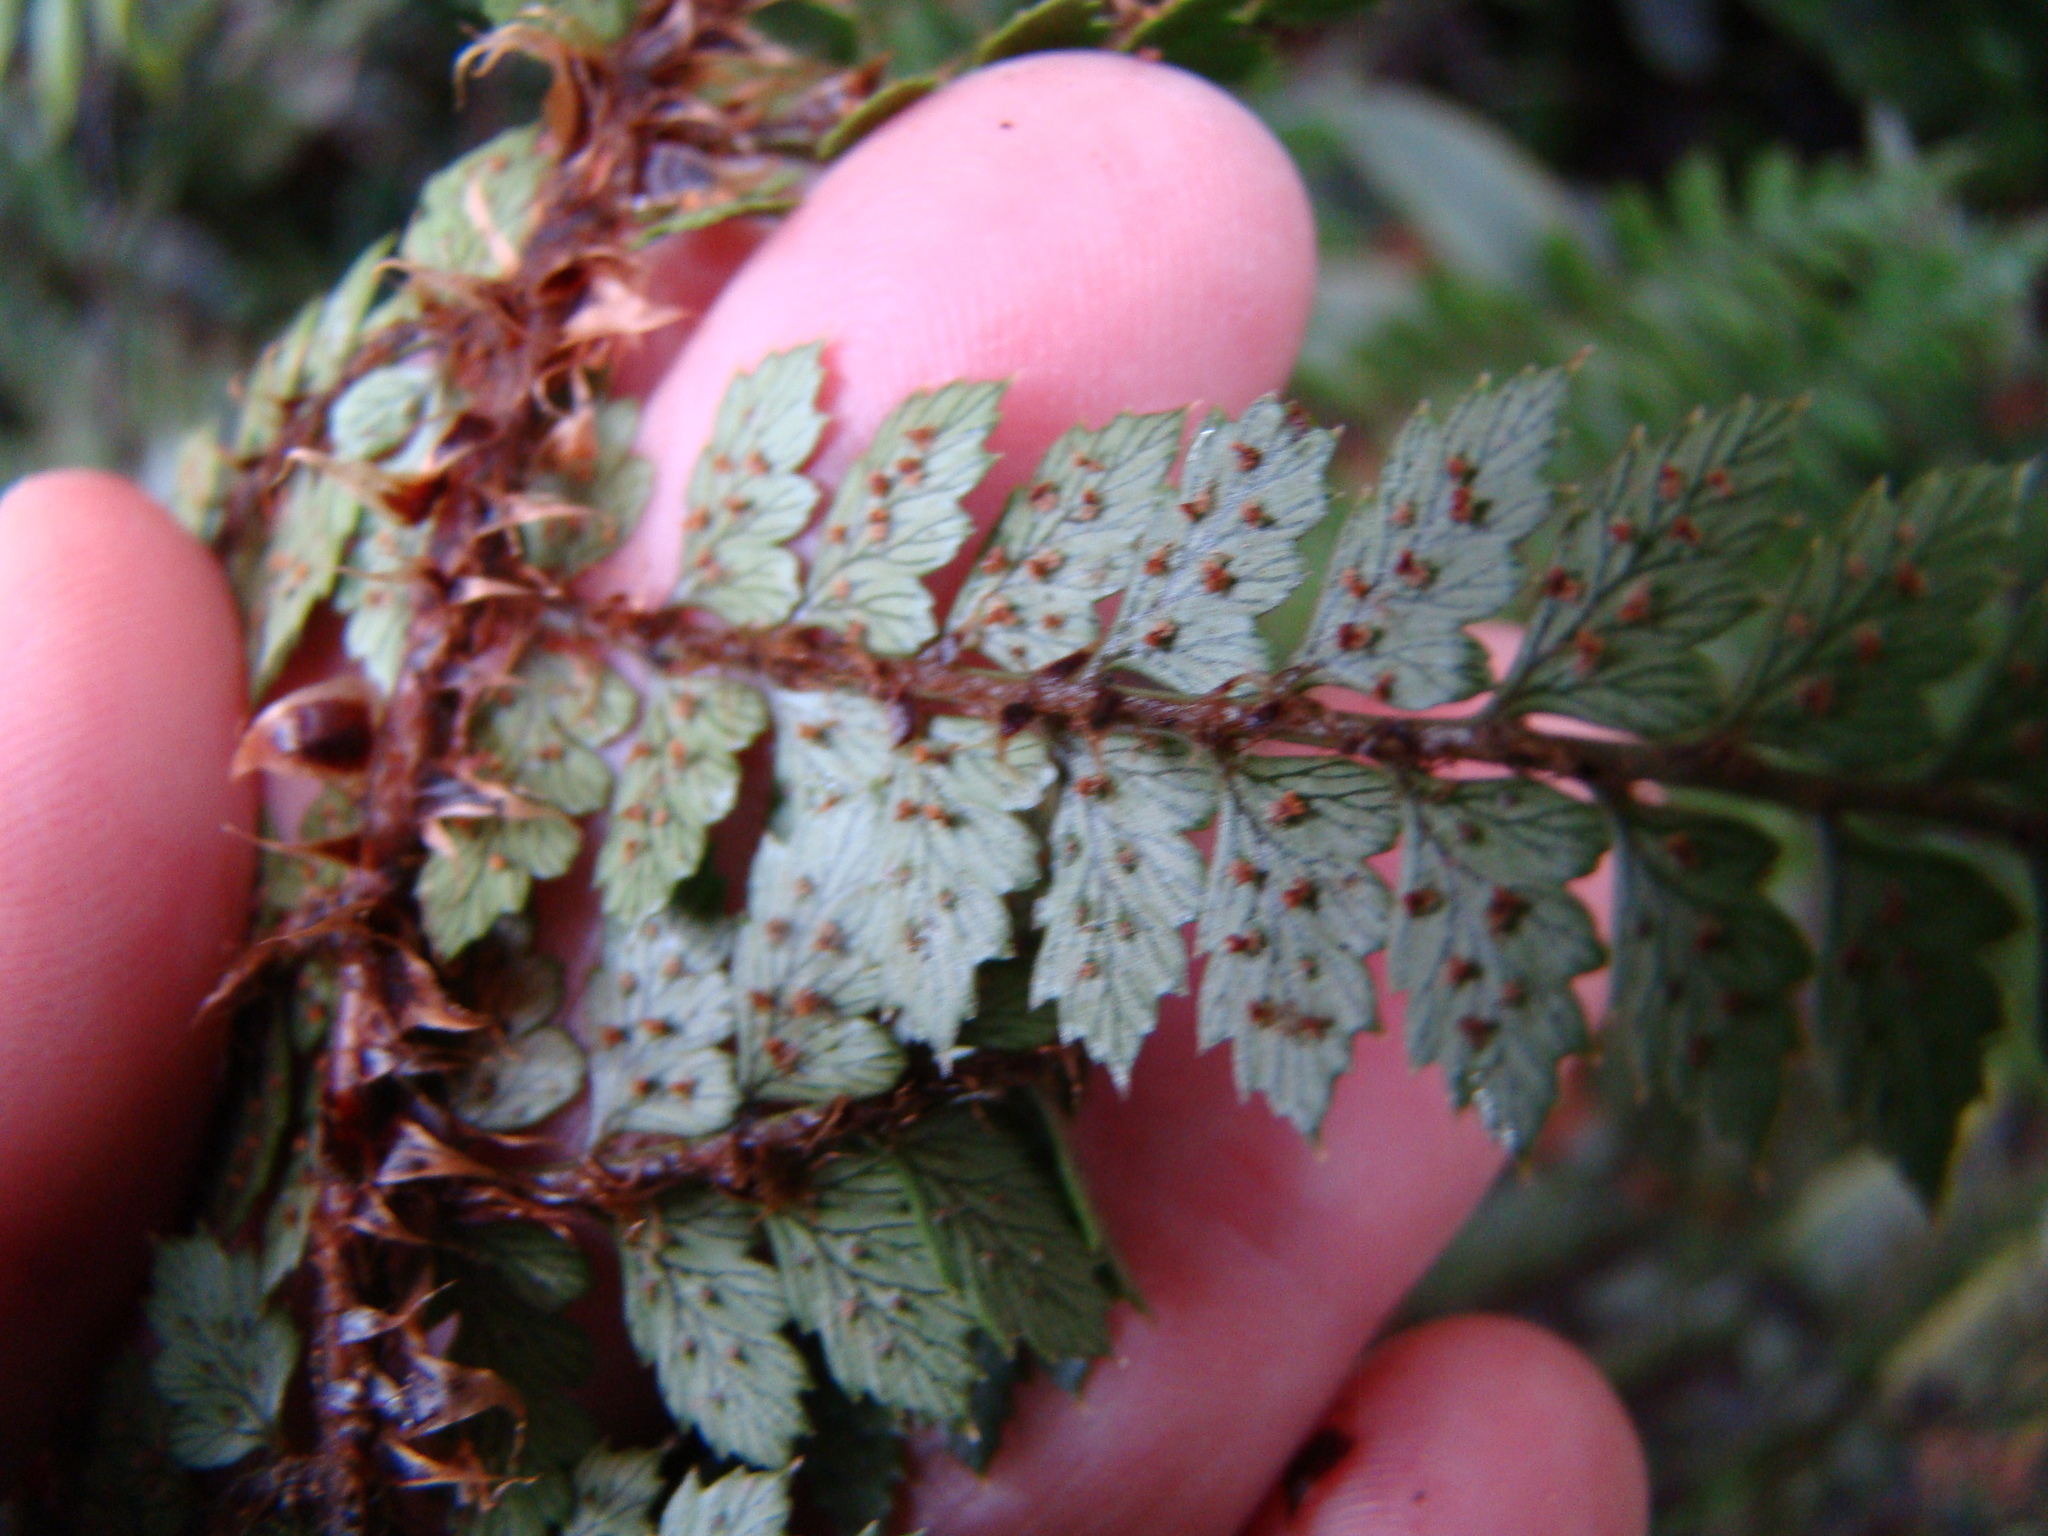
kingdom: Plantae
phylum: Tracheophyta
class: Polypodiopsida
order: Polypodiales
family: Dryopteridaceae
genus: Polystichum
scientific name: Polystichum vestitum
